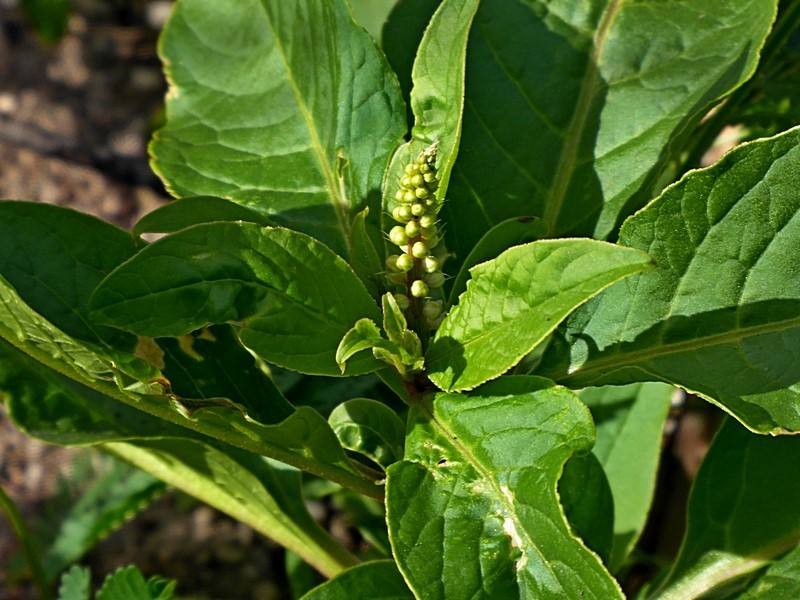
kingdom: Plantae
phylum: Tracheophyta
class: Magnoliopsida
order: Caryophyllales
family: Phytolaccaceae
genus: Phytolacca
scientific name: Phytolacca icosandra
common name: Button pokeweed
